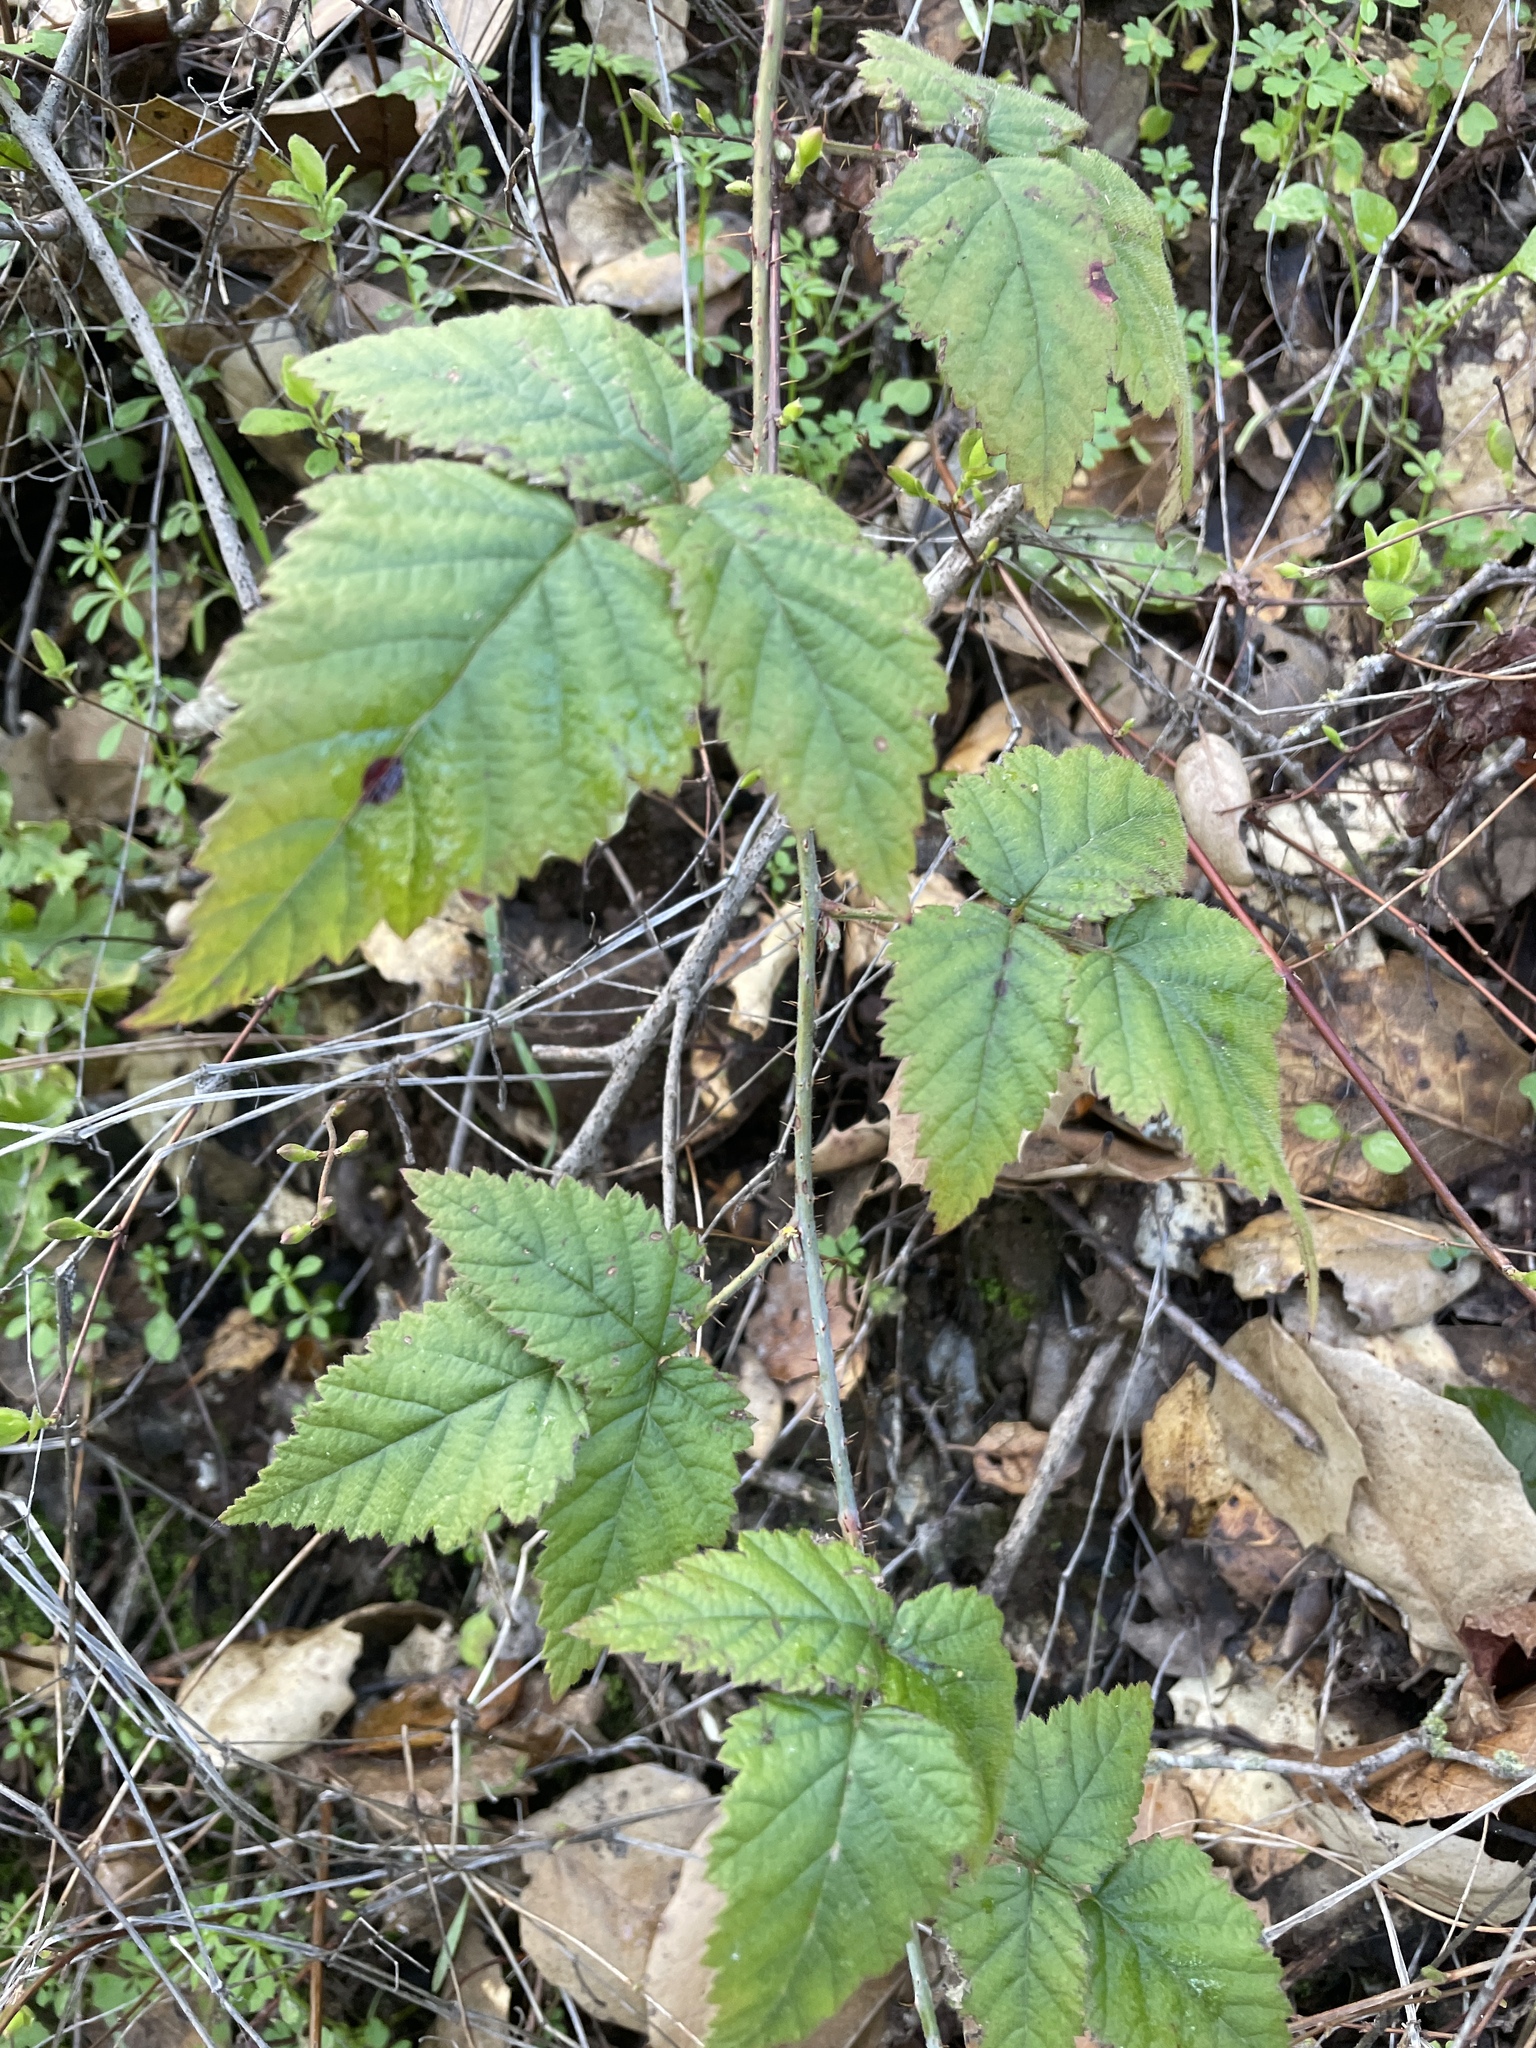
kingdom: Plantae
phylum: Tracheophyta
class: Magnoliopsida
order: Rosales
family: Rosaceae
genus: Rubus
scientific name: Rubus ursinus
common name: Pacific blackberry
